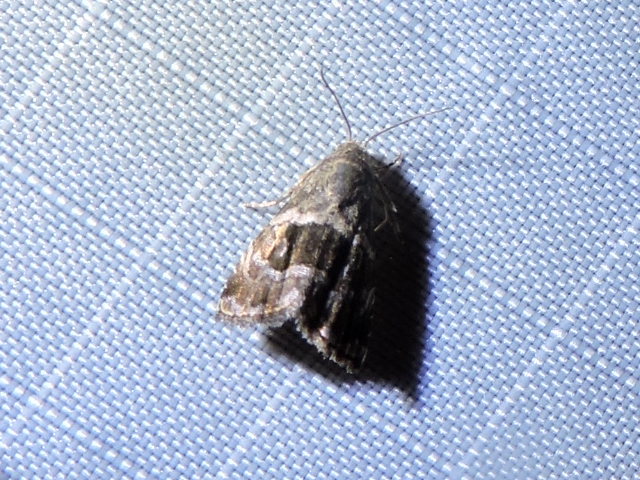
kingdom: Animalia
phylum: Arthropoda
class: Insecta
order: Lepidoptera
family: Noctuidae
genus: Tripudia
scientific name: Tripudia quadrifera
